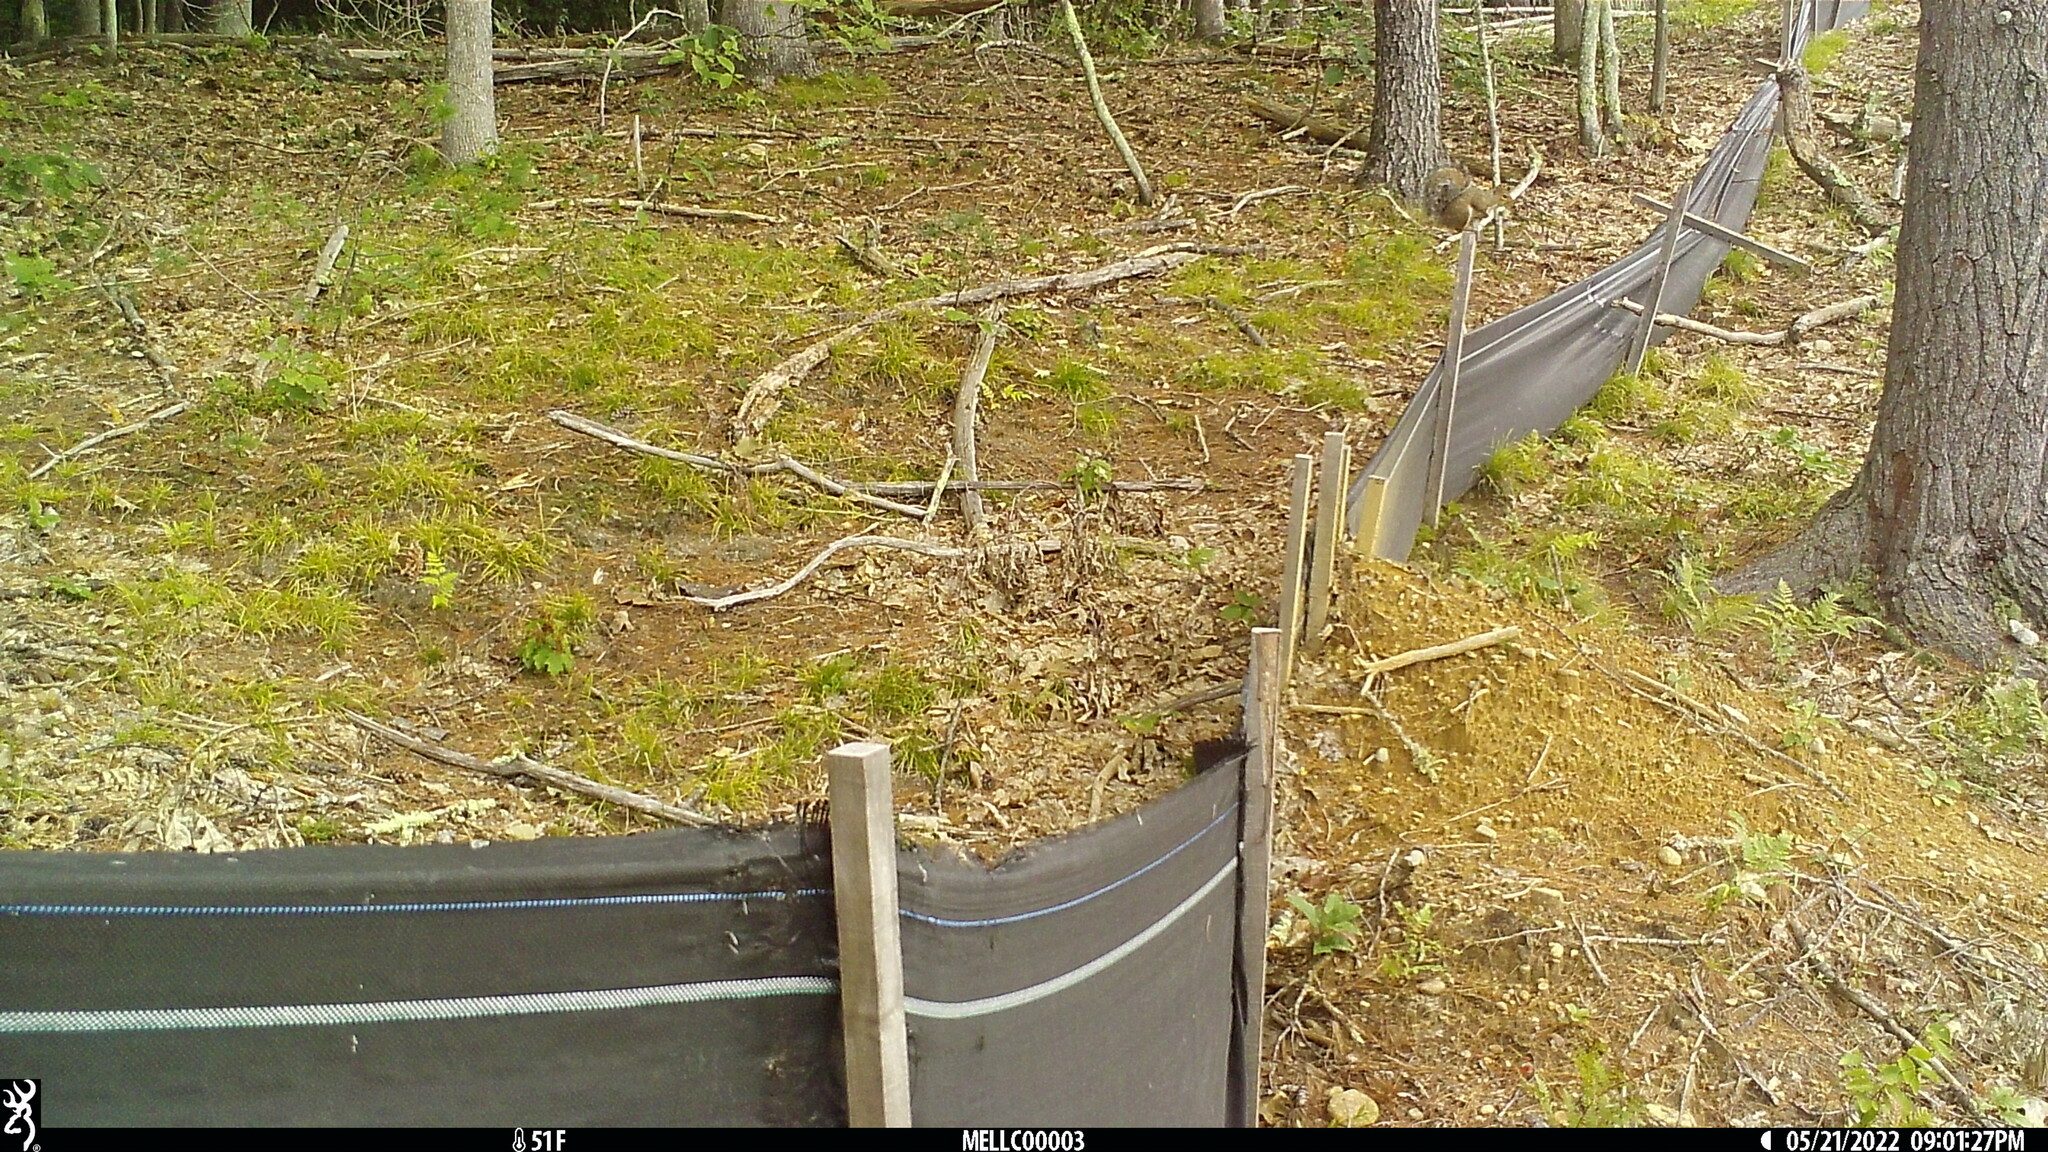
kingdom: Animalia
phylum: Chordata
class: Mammalia
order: Rodentia
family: Sciuridae
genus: Sciurus
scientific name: Sciurus carolinensis
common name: Eastern gray squirrel
